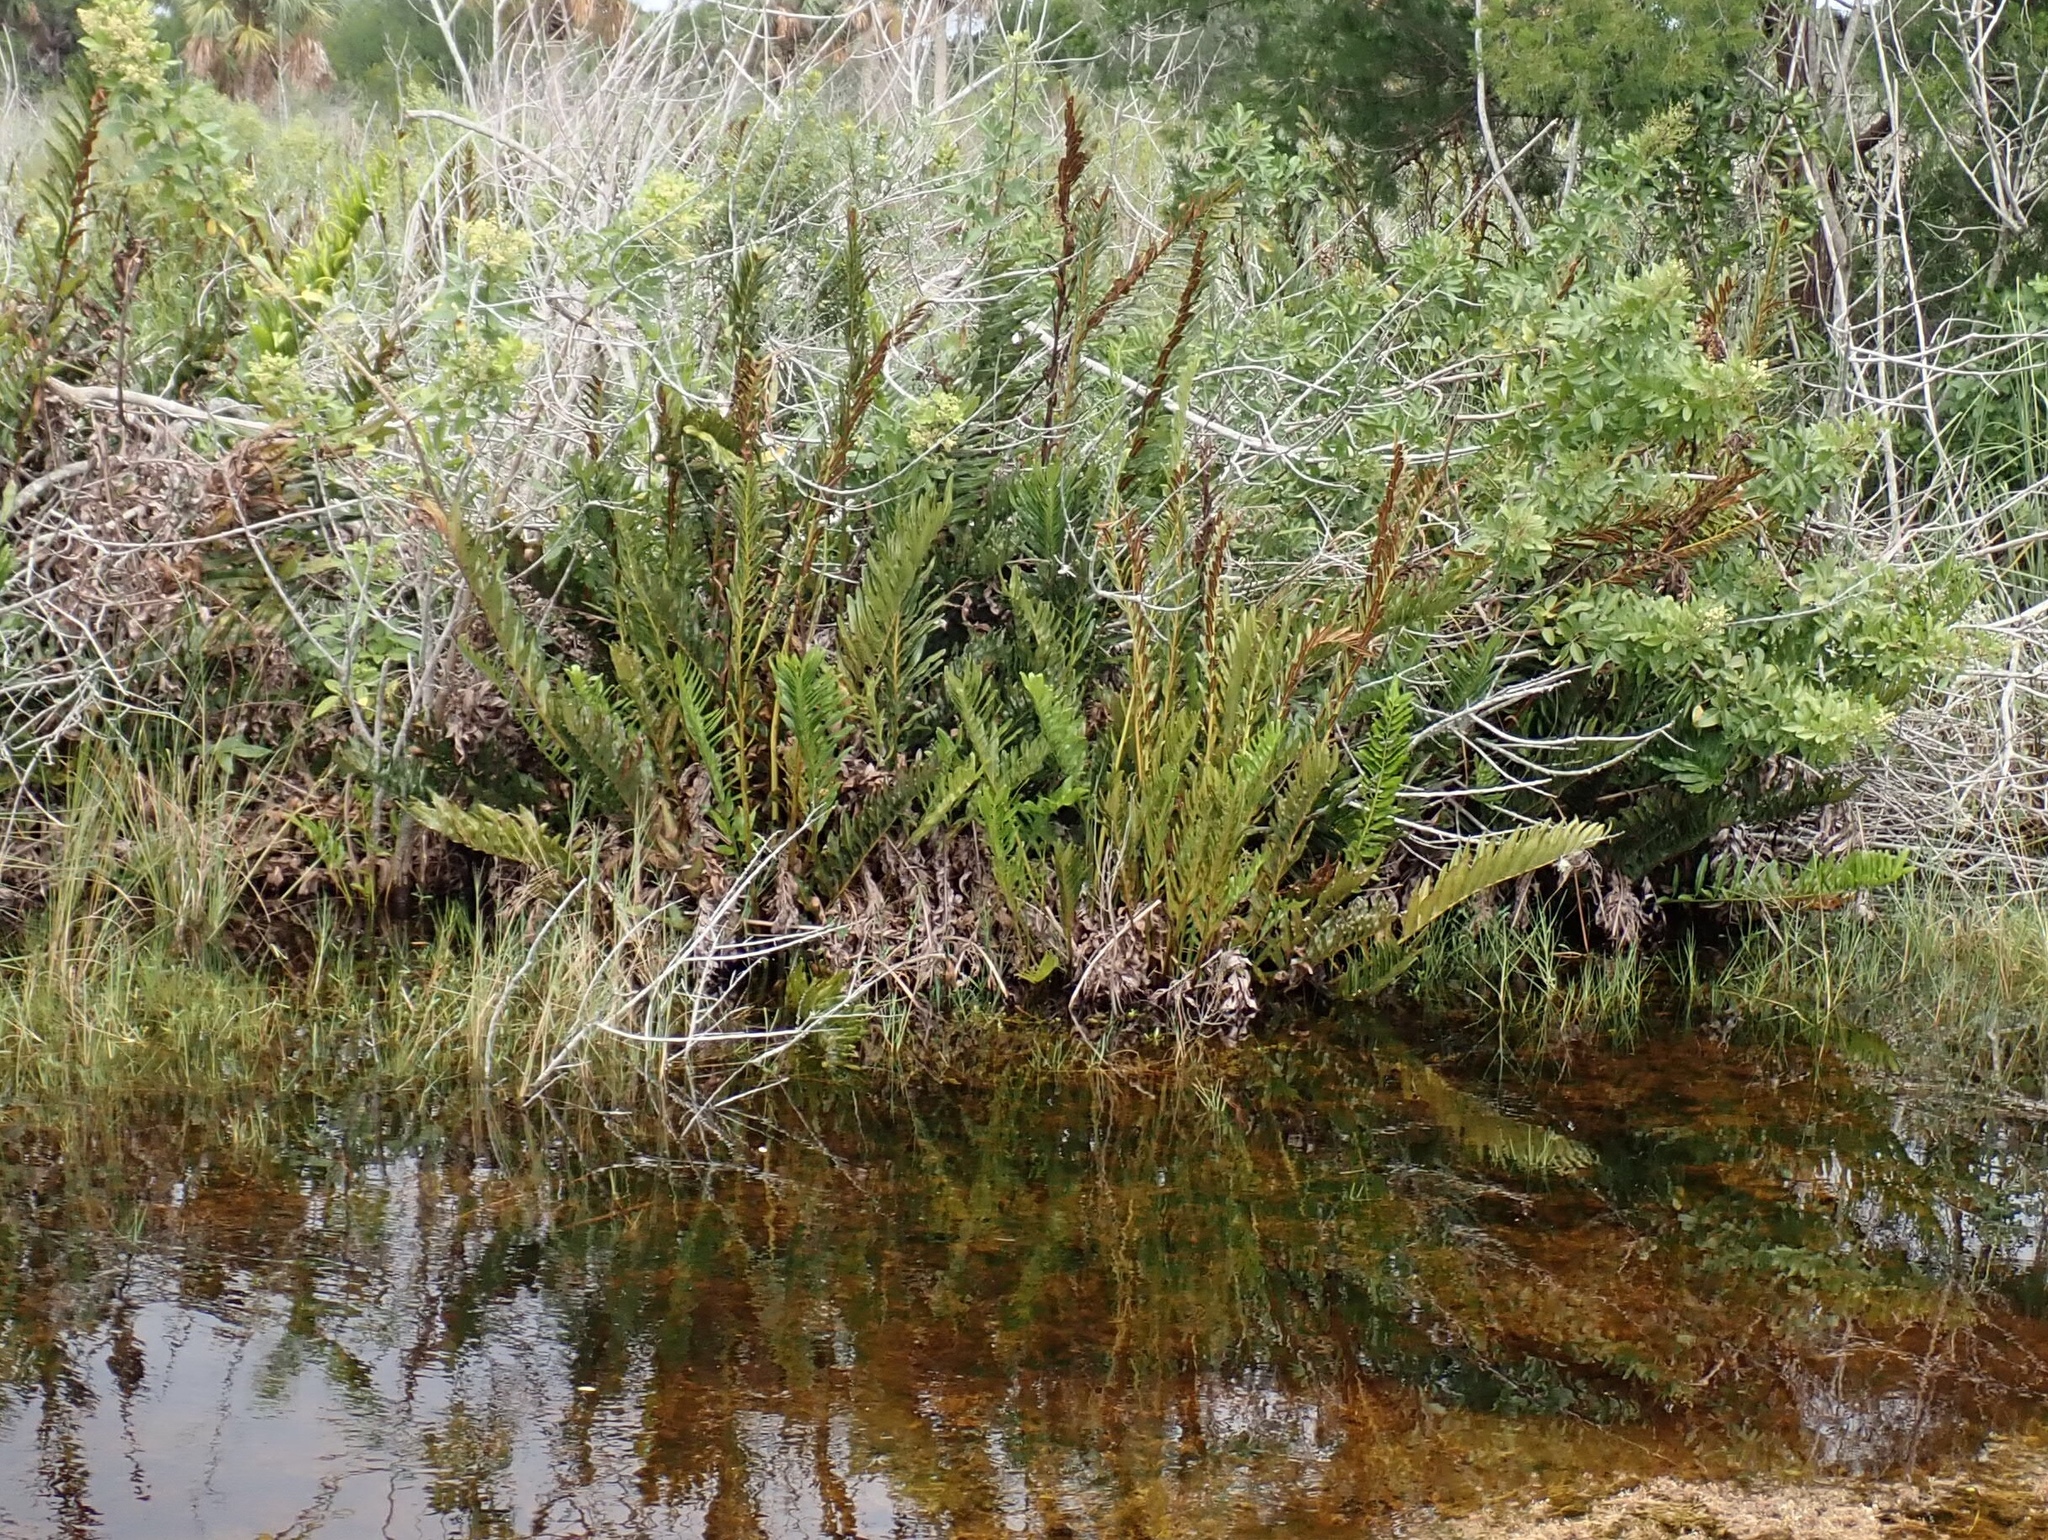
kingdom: Plantae
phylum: Tracheophyta
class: Polypodiopsida
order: Polypodiales
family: Pteridaceae
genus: Acrostichum
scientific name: Acrostichum danaeifolium
